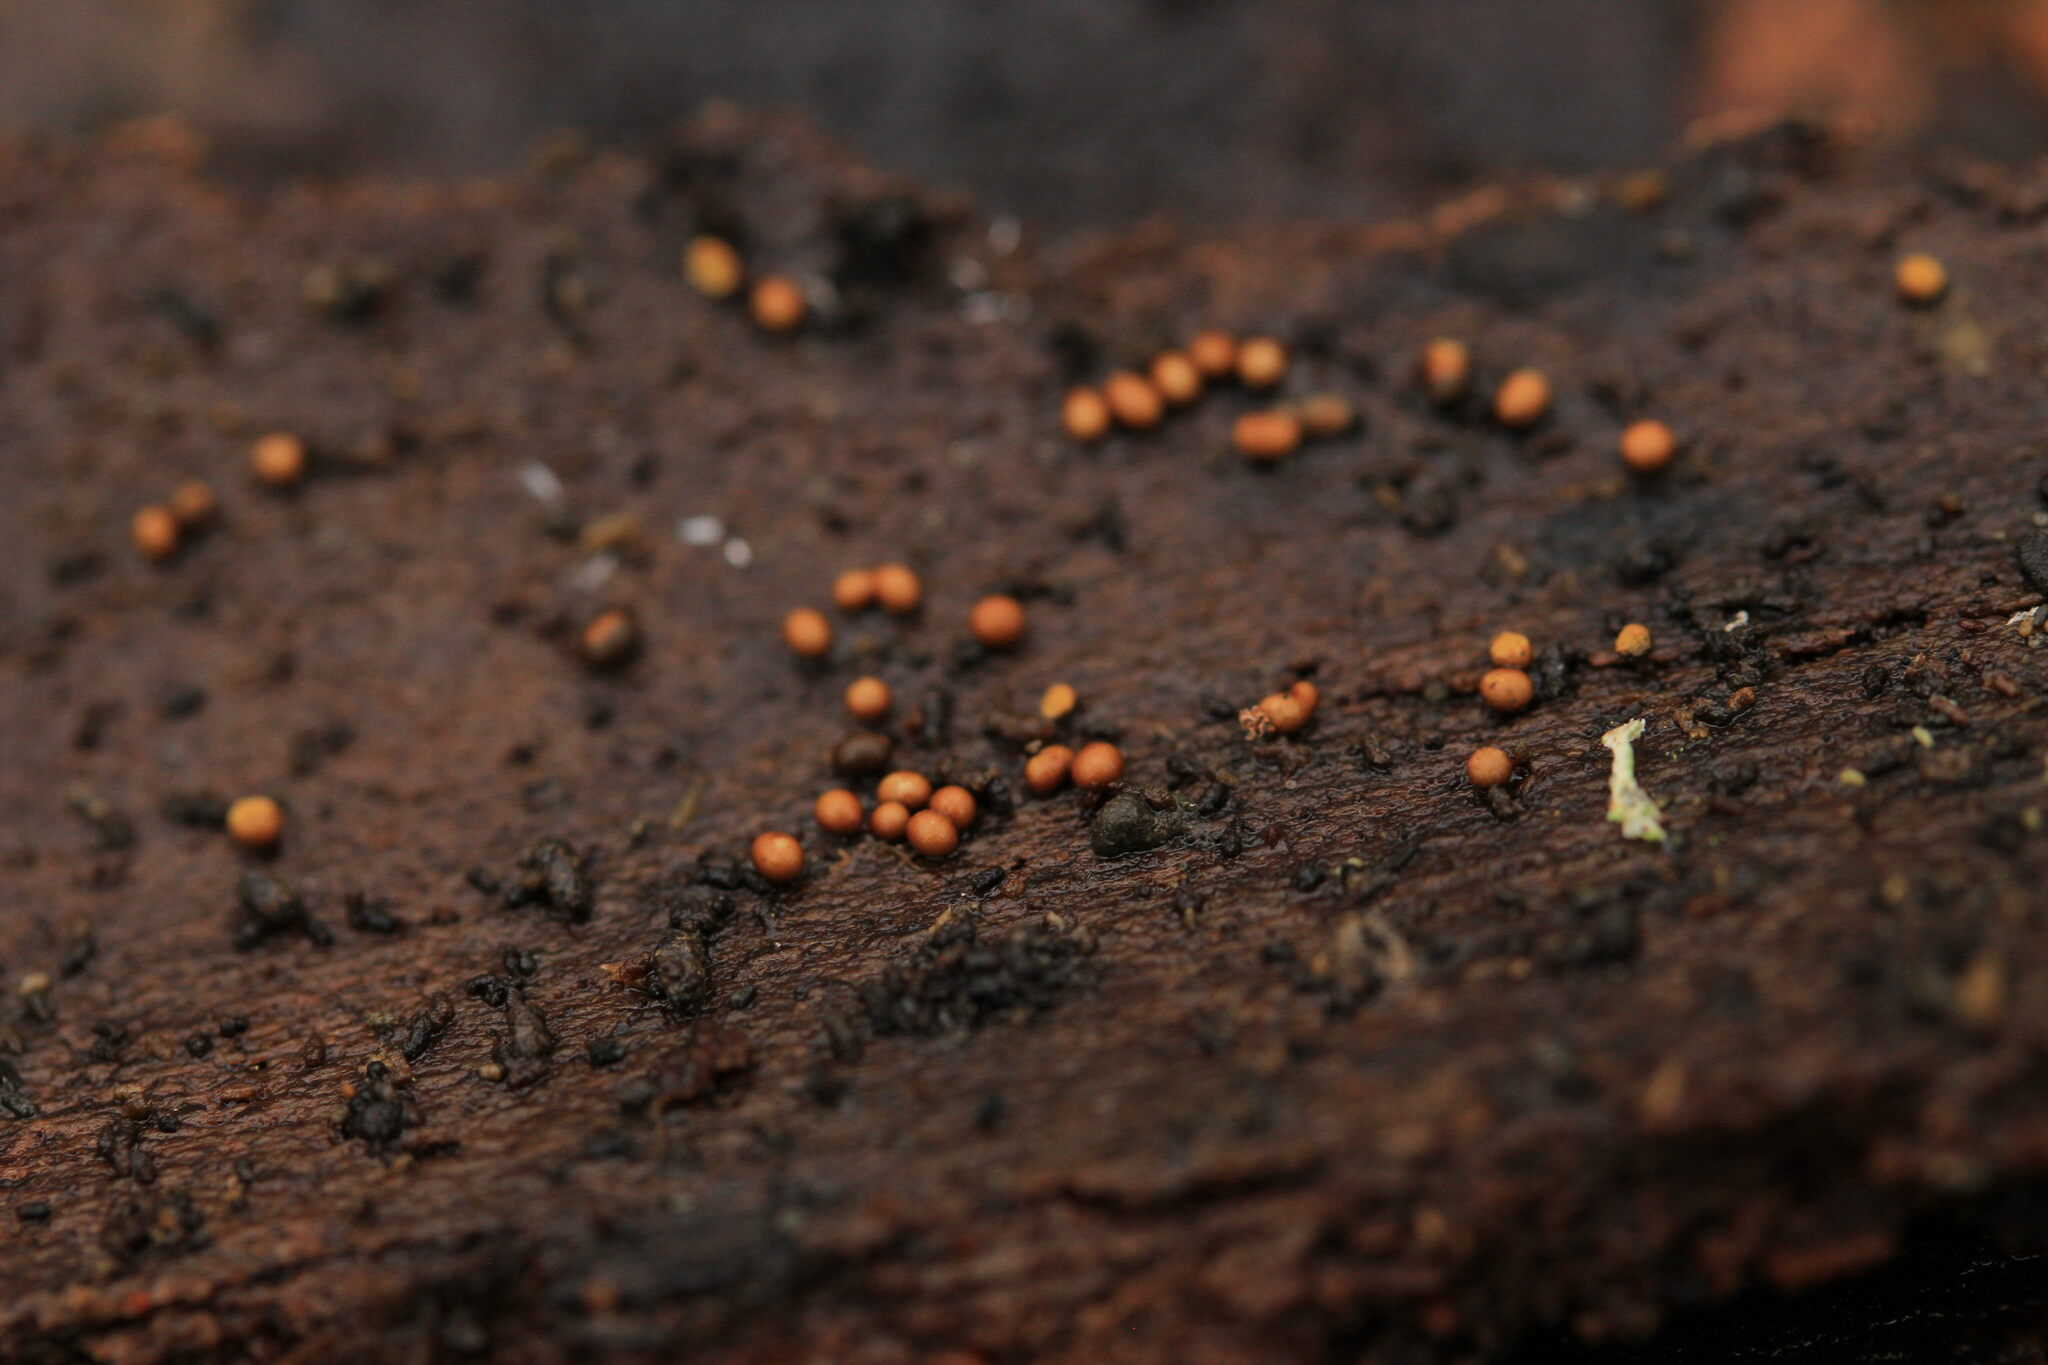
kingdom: Protozoa
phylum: Mycetozoa
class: Myxomycetes
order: Trichiales
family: Trichiaceae
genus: Trichia
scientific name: Trichia
